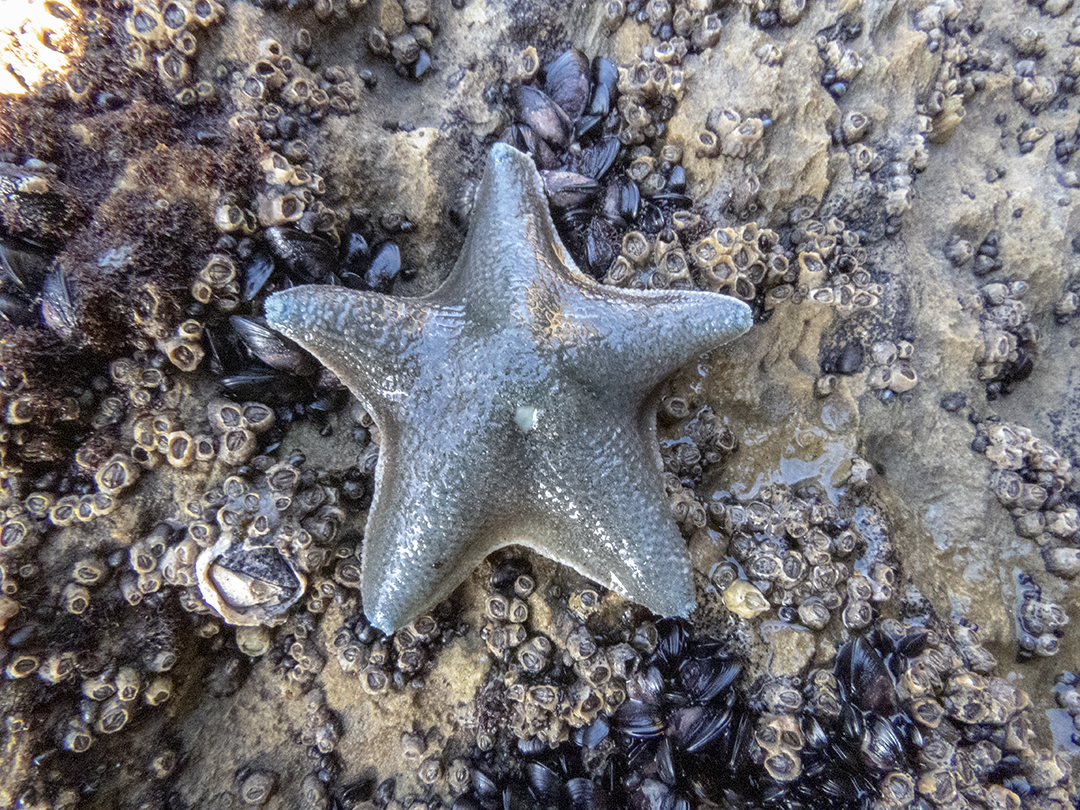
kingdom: Animalia
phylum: Echinodermata
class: Asteroidea
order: Valvatida
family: Asterinidae
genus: Patiriella
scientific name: Patiriella regularis
